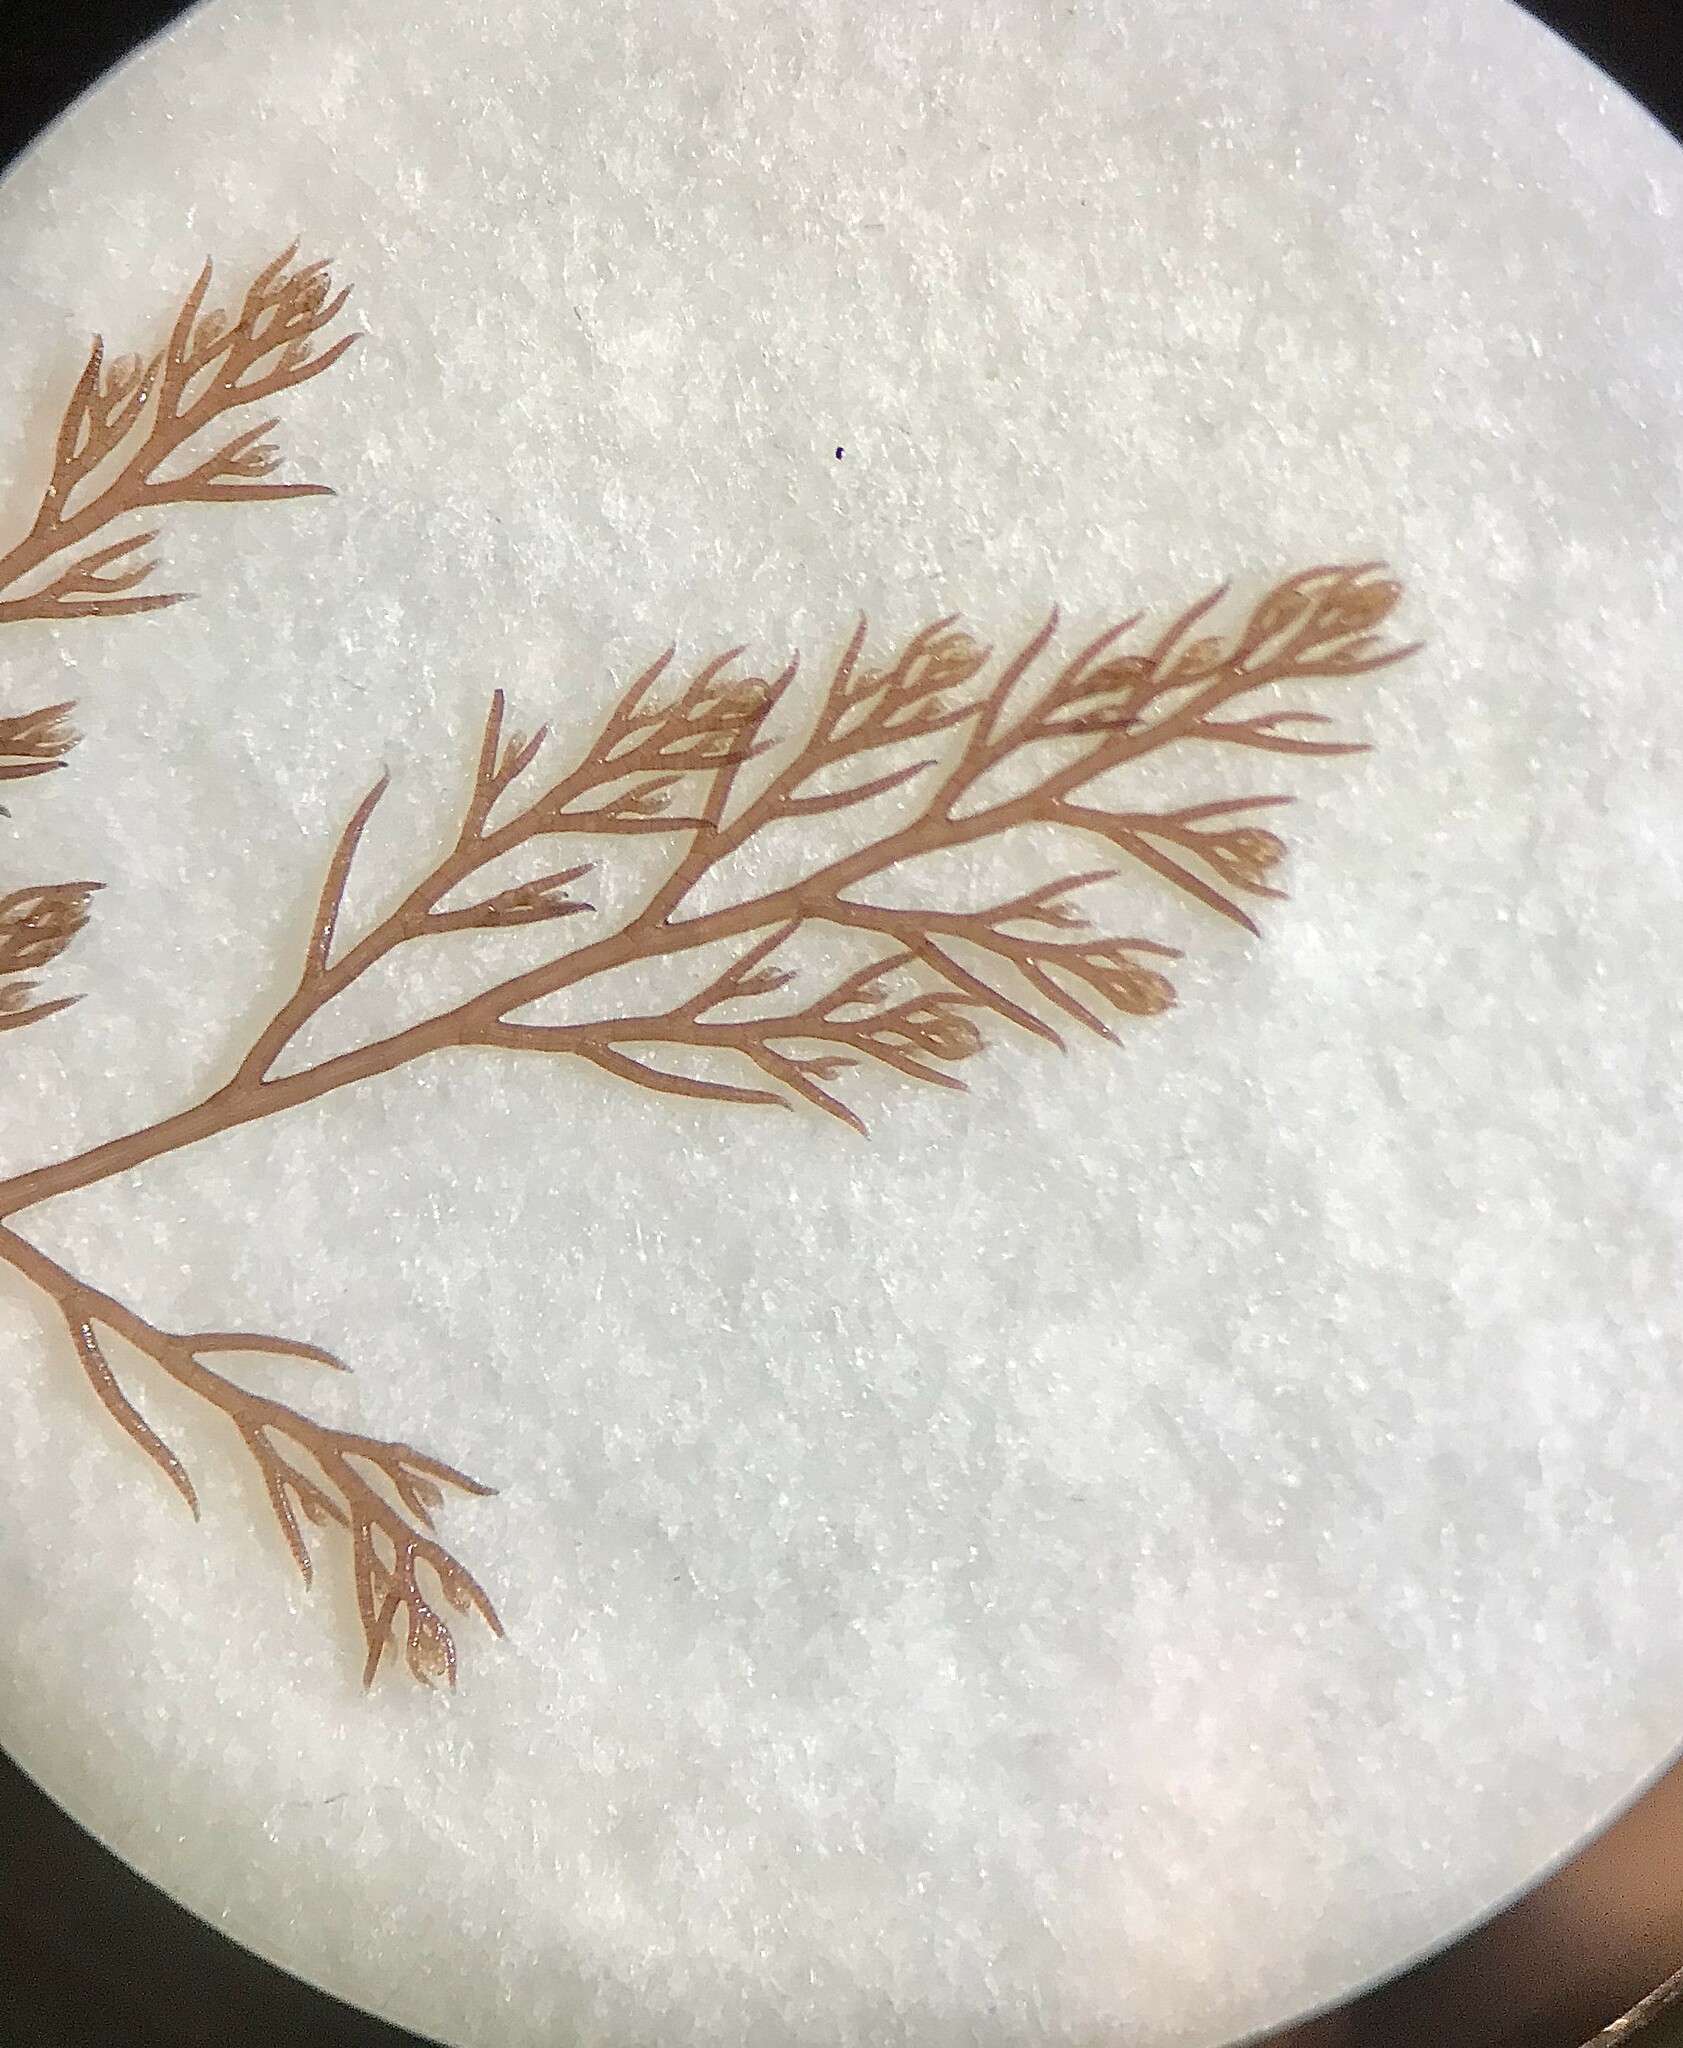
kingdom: Plantae
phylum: Rhodophyta
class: Florideophyceae
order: Ceramiales
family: Rhodomelaceae
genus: Savoiea
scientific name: Savoiea robusta
